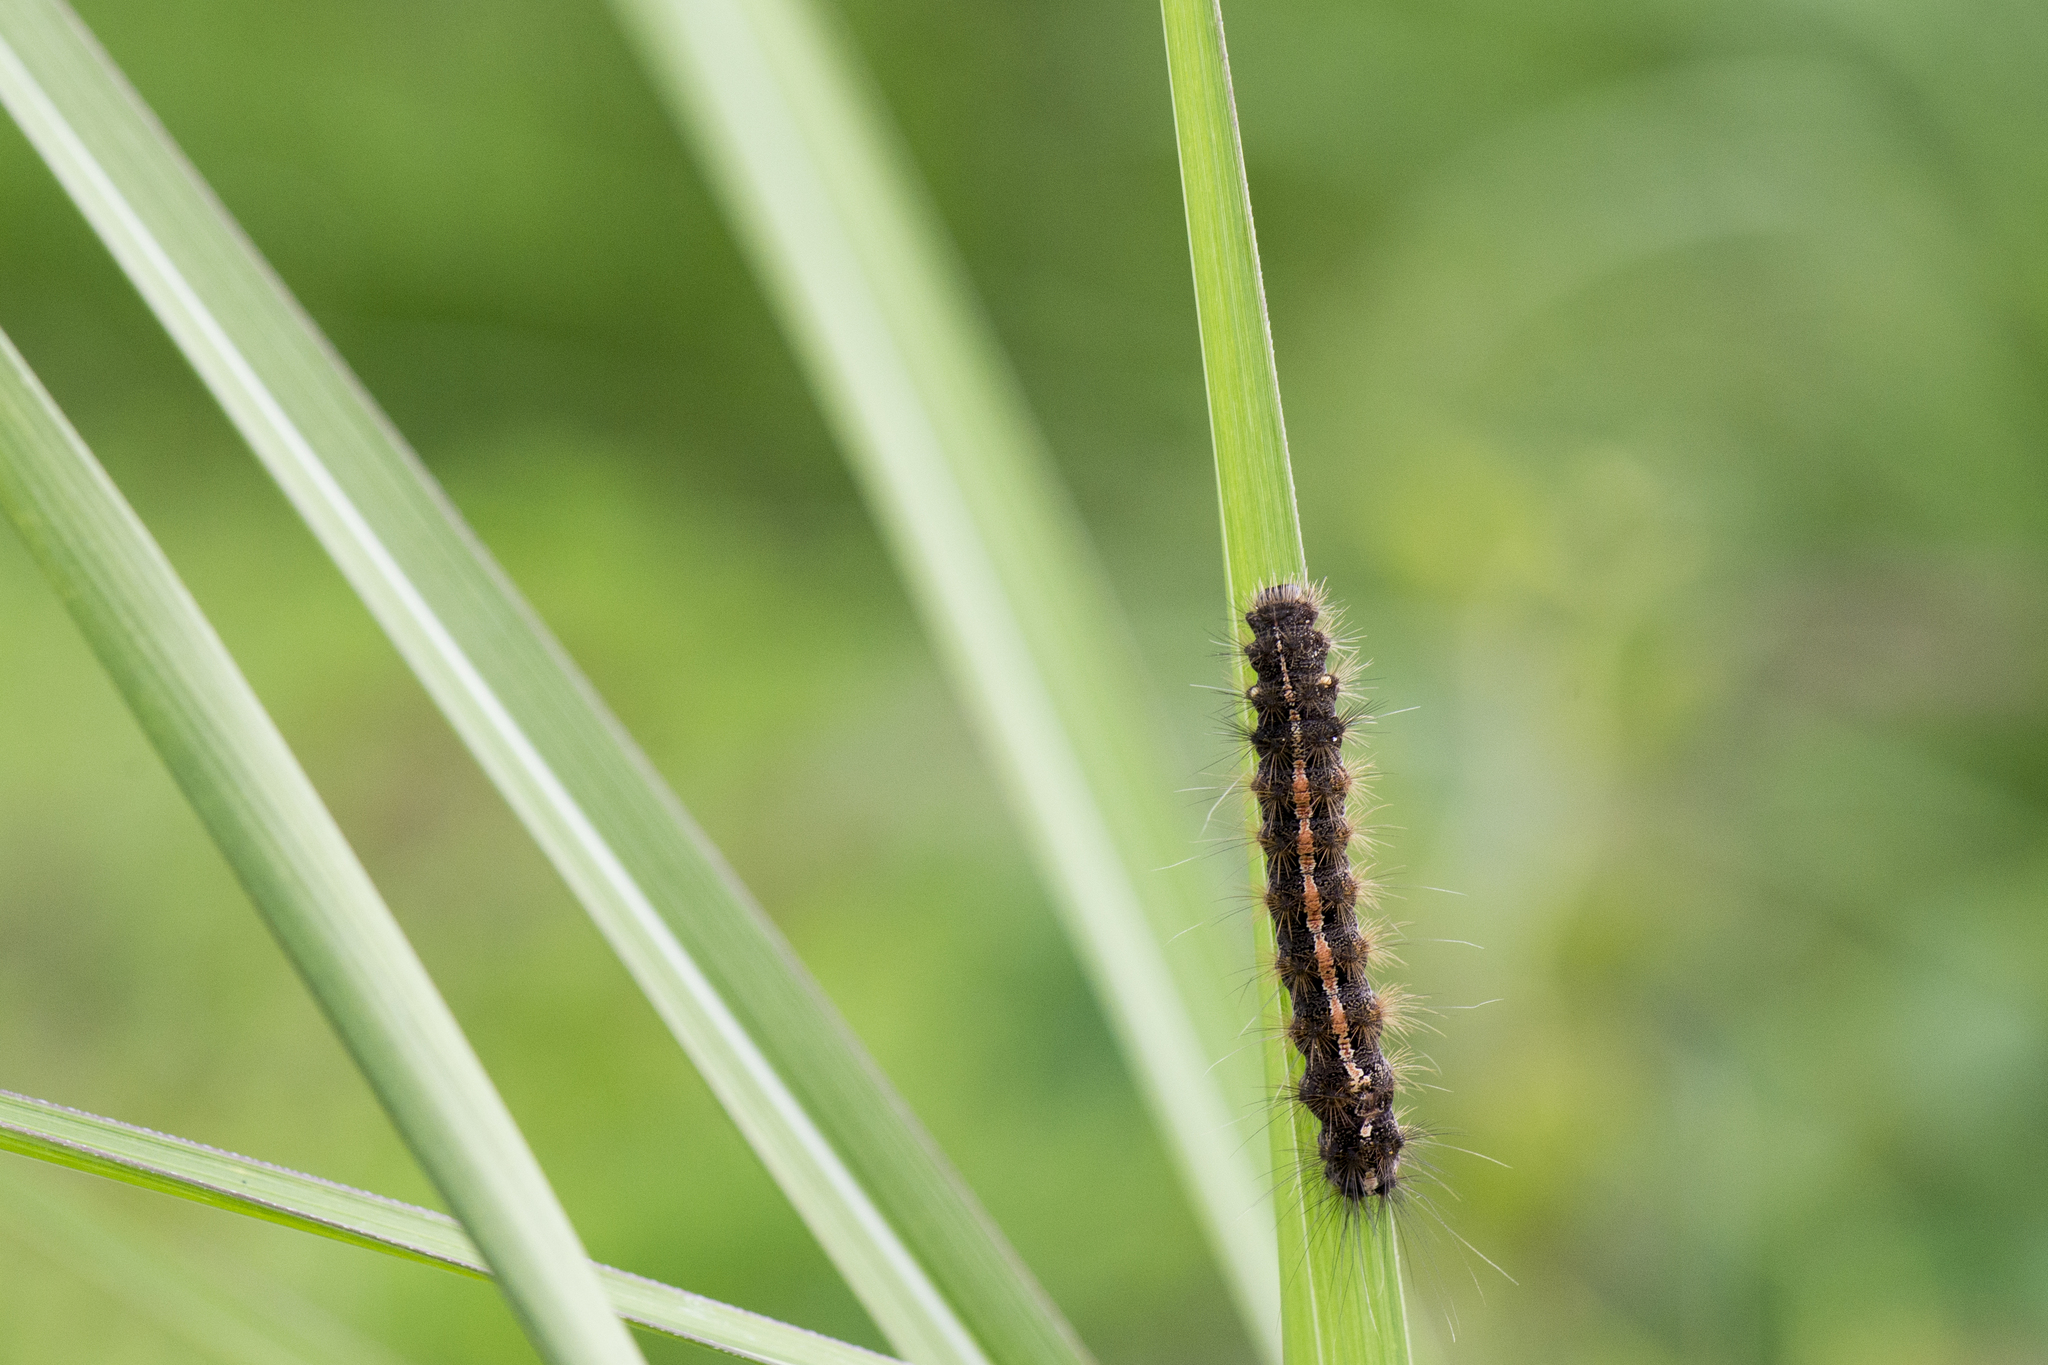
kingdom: Animalia
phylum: Arthropoda
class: Insecta
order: Lepidoptera
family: Erebidae
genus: Creatonotos
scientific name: Creatonotos transiens
